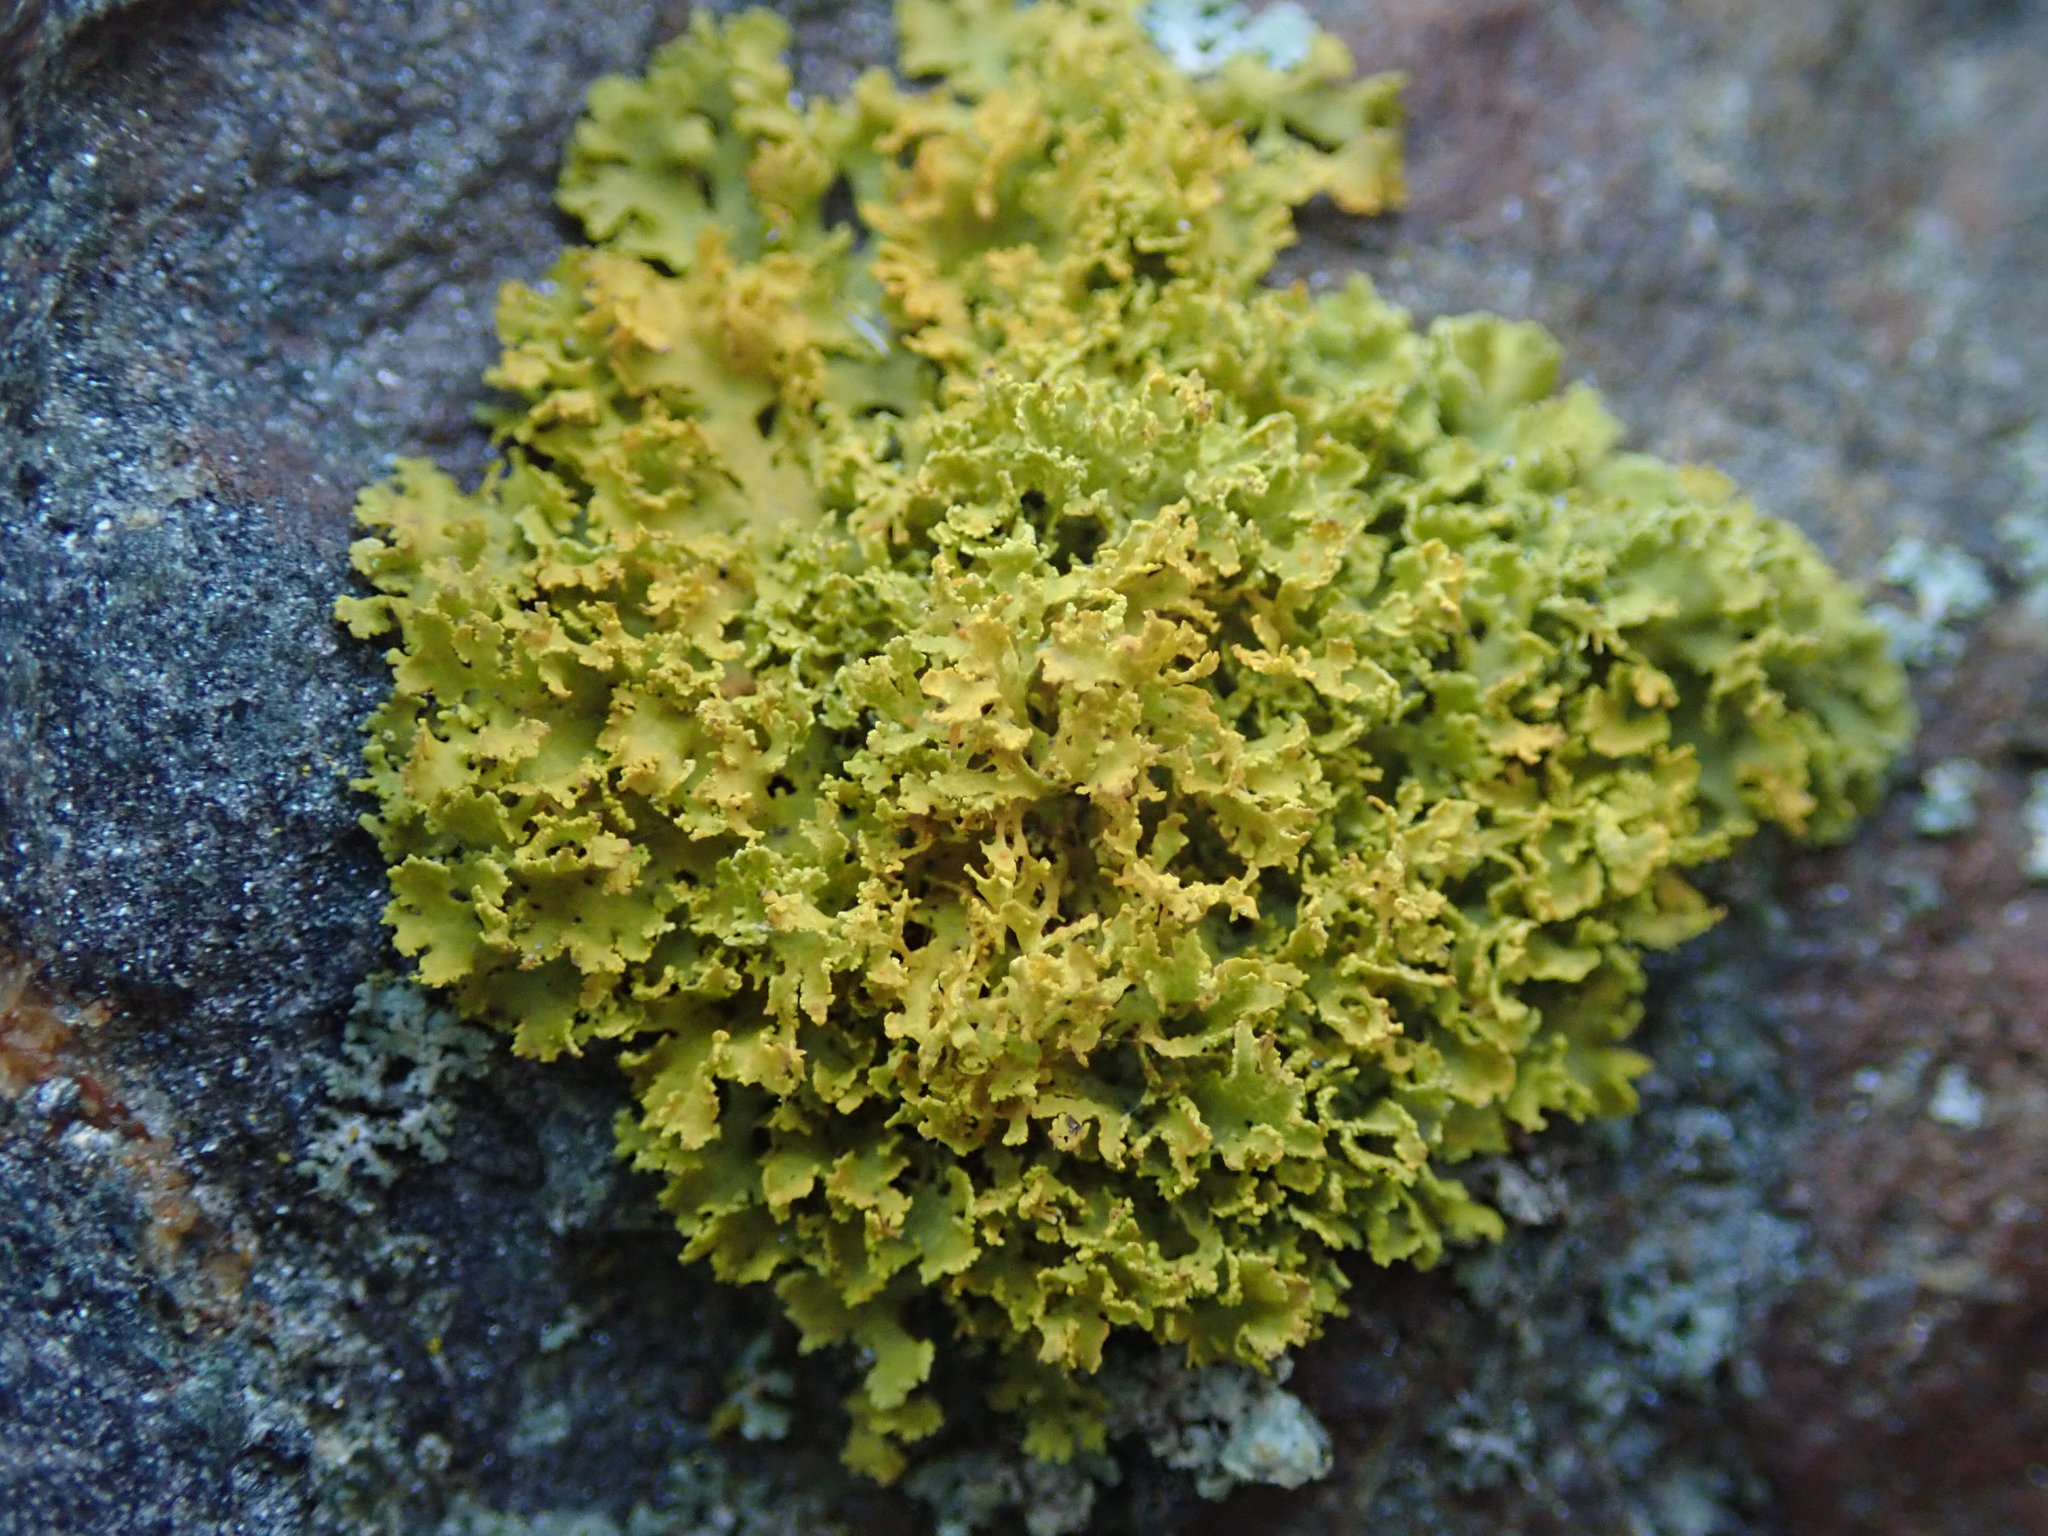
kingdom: Fungi
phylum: Ascomycota
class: Lecanoromycetes
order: Teloschistales
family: Teloschistaceae
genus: Polycauliona
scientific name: Polycauliona candelaria
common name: Shrubby sunburst lichen
